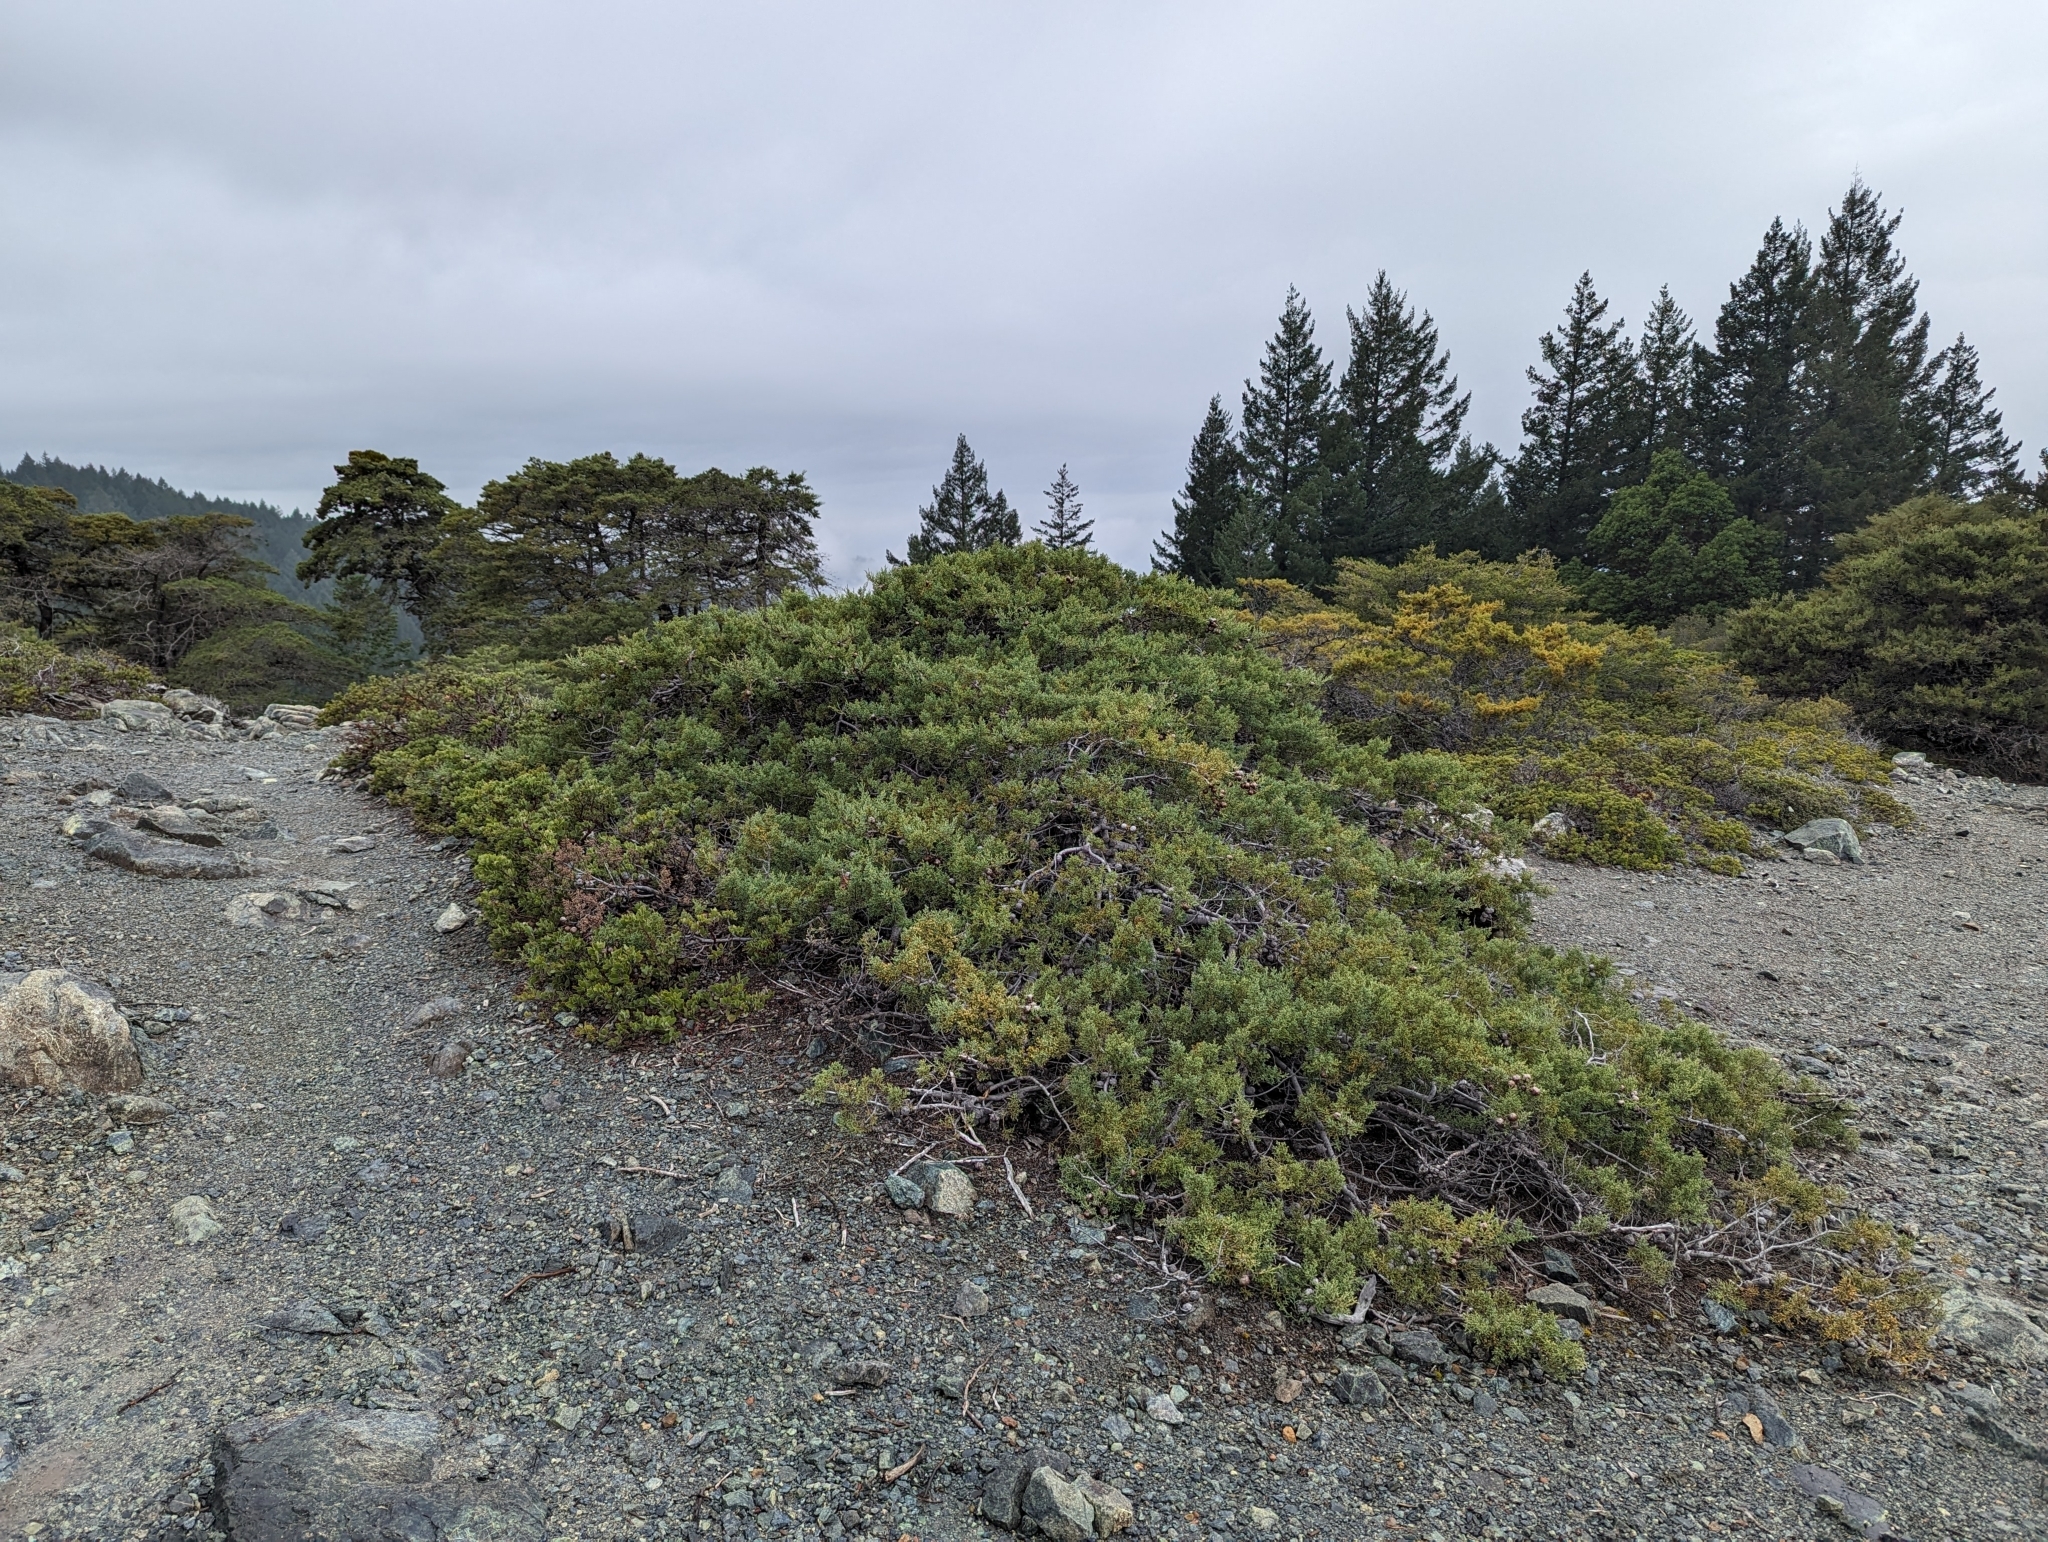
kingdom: Plantae
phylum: Tracheophyta
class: Pinopsida
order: Pinales
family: Cupressaceae
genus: Cupressus
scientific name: Cupressus sargentii
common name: Sargent cypress
